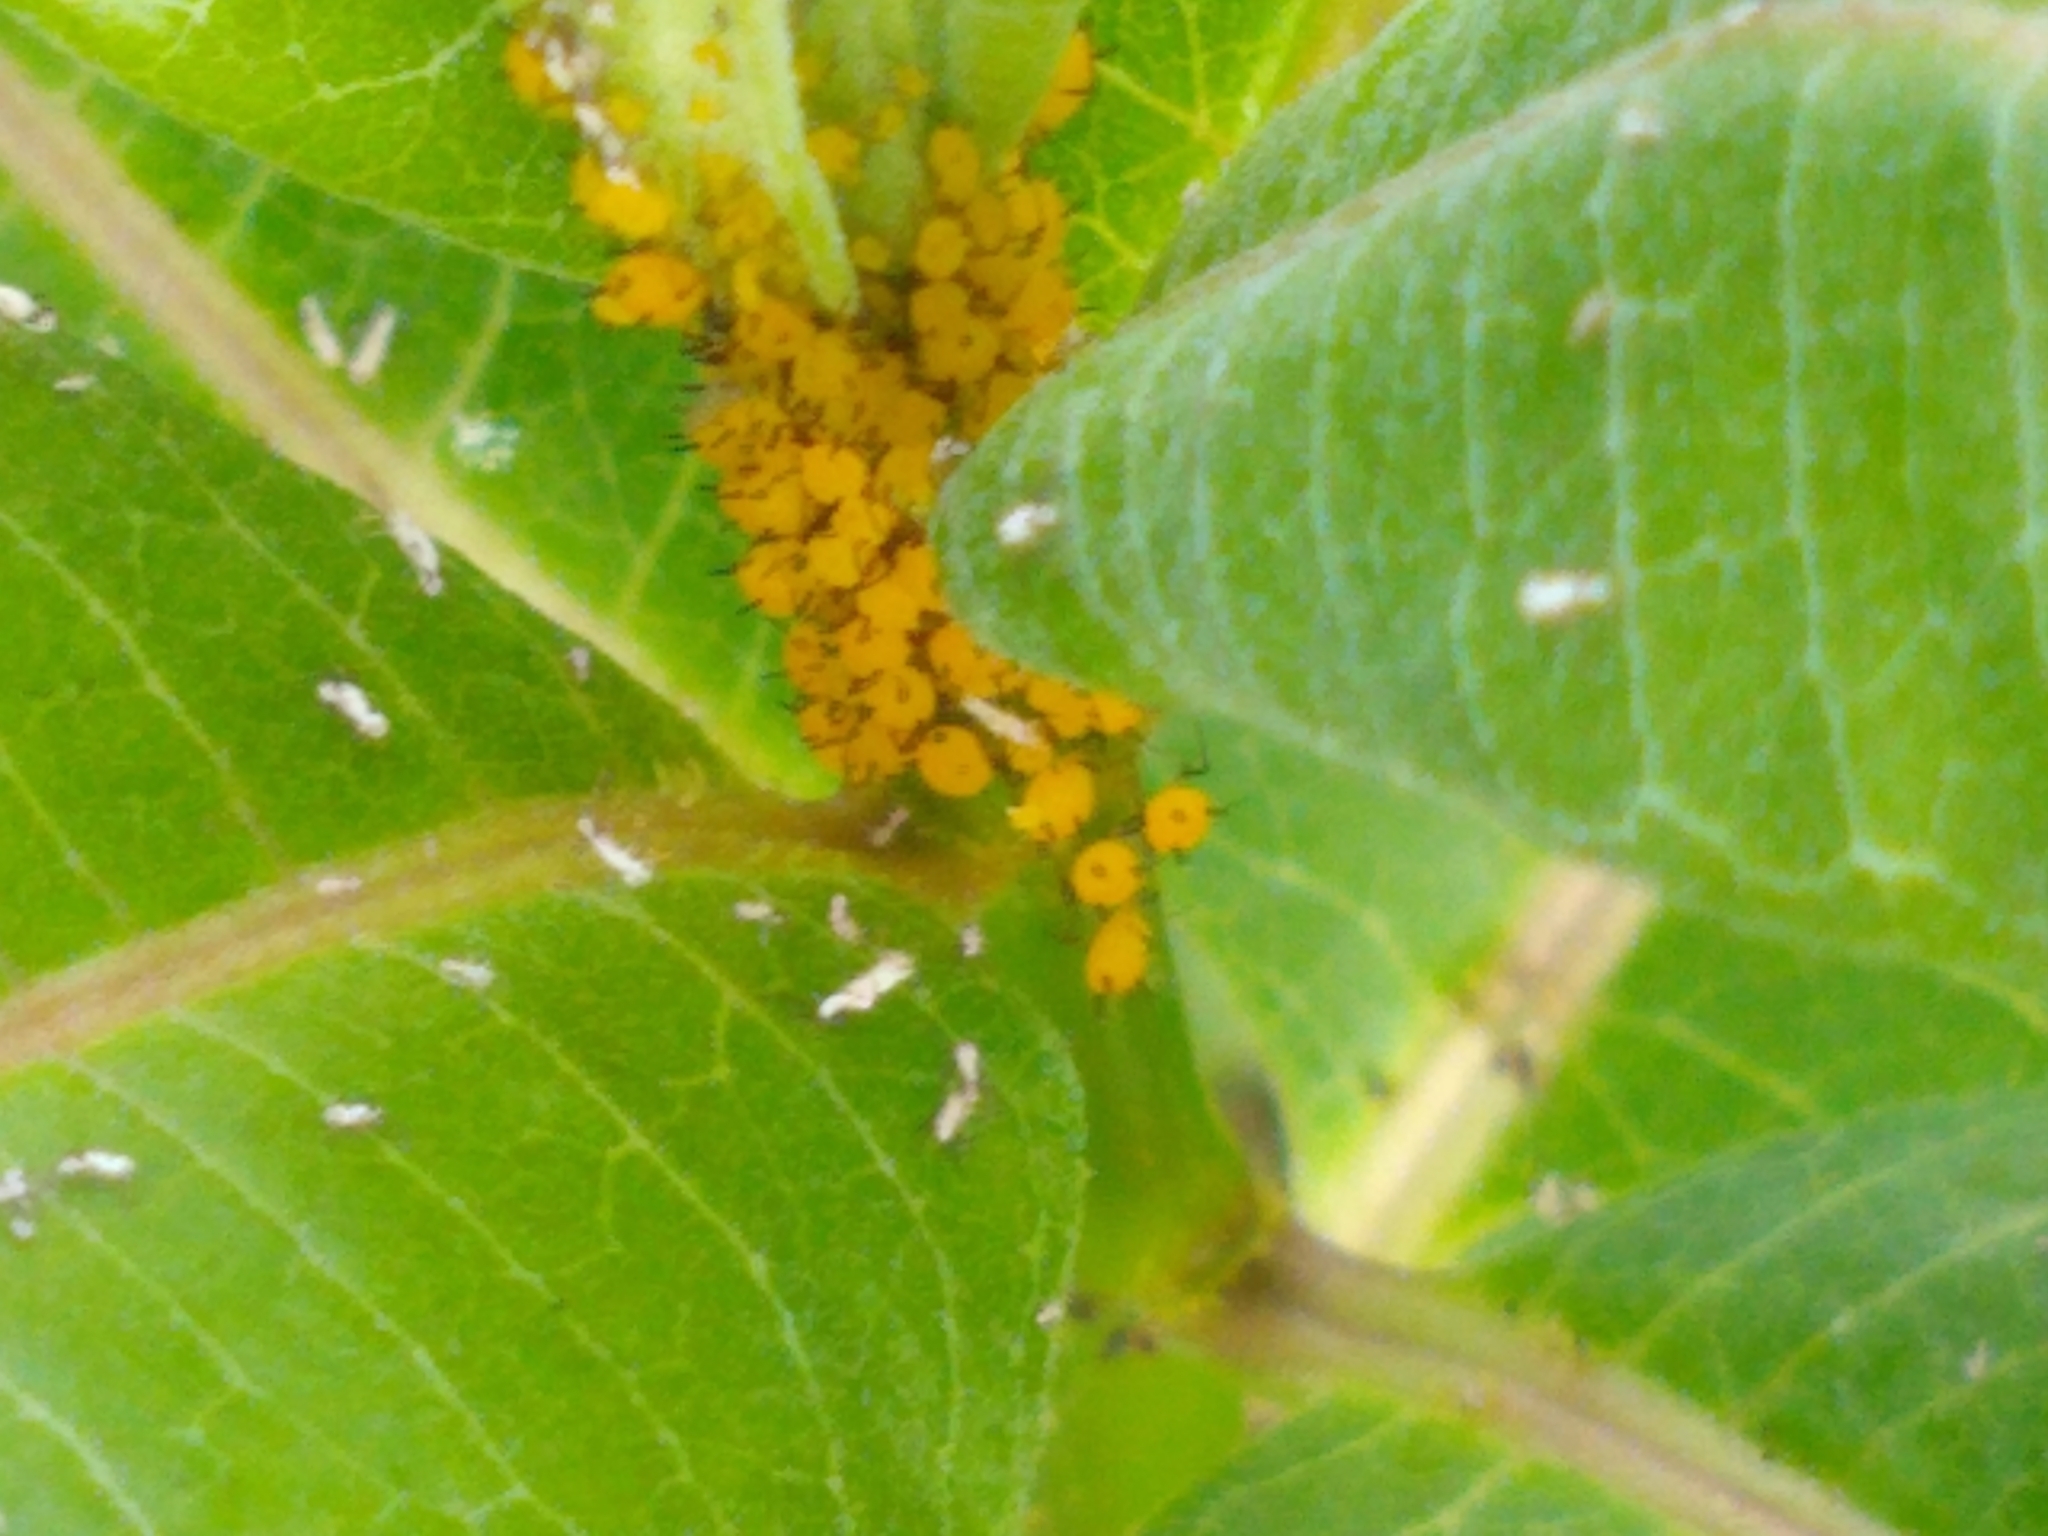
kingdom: Animalia
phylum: Arthropoda
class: Insecta
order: Hemiptera
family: Aphididae
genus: Aphis
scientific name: Aphis nerii
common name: Oleander aphid
